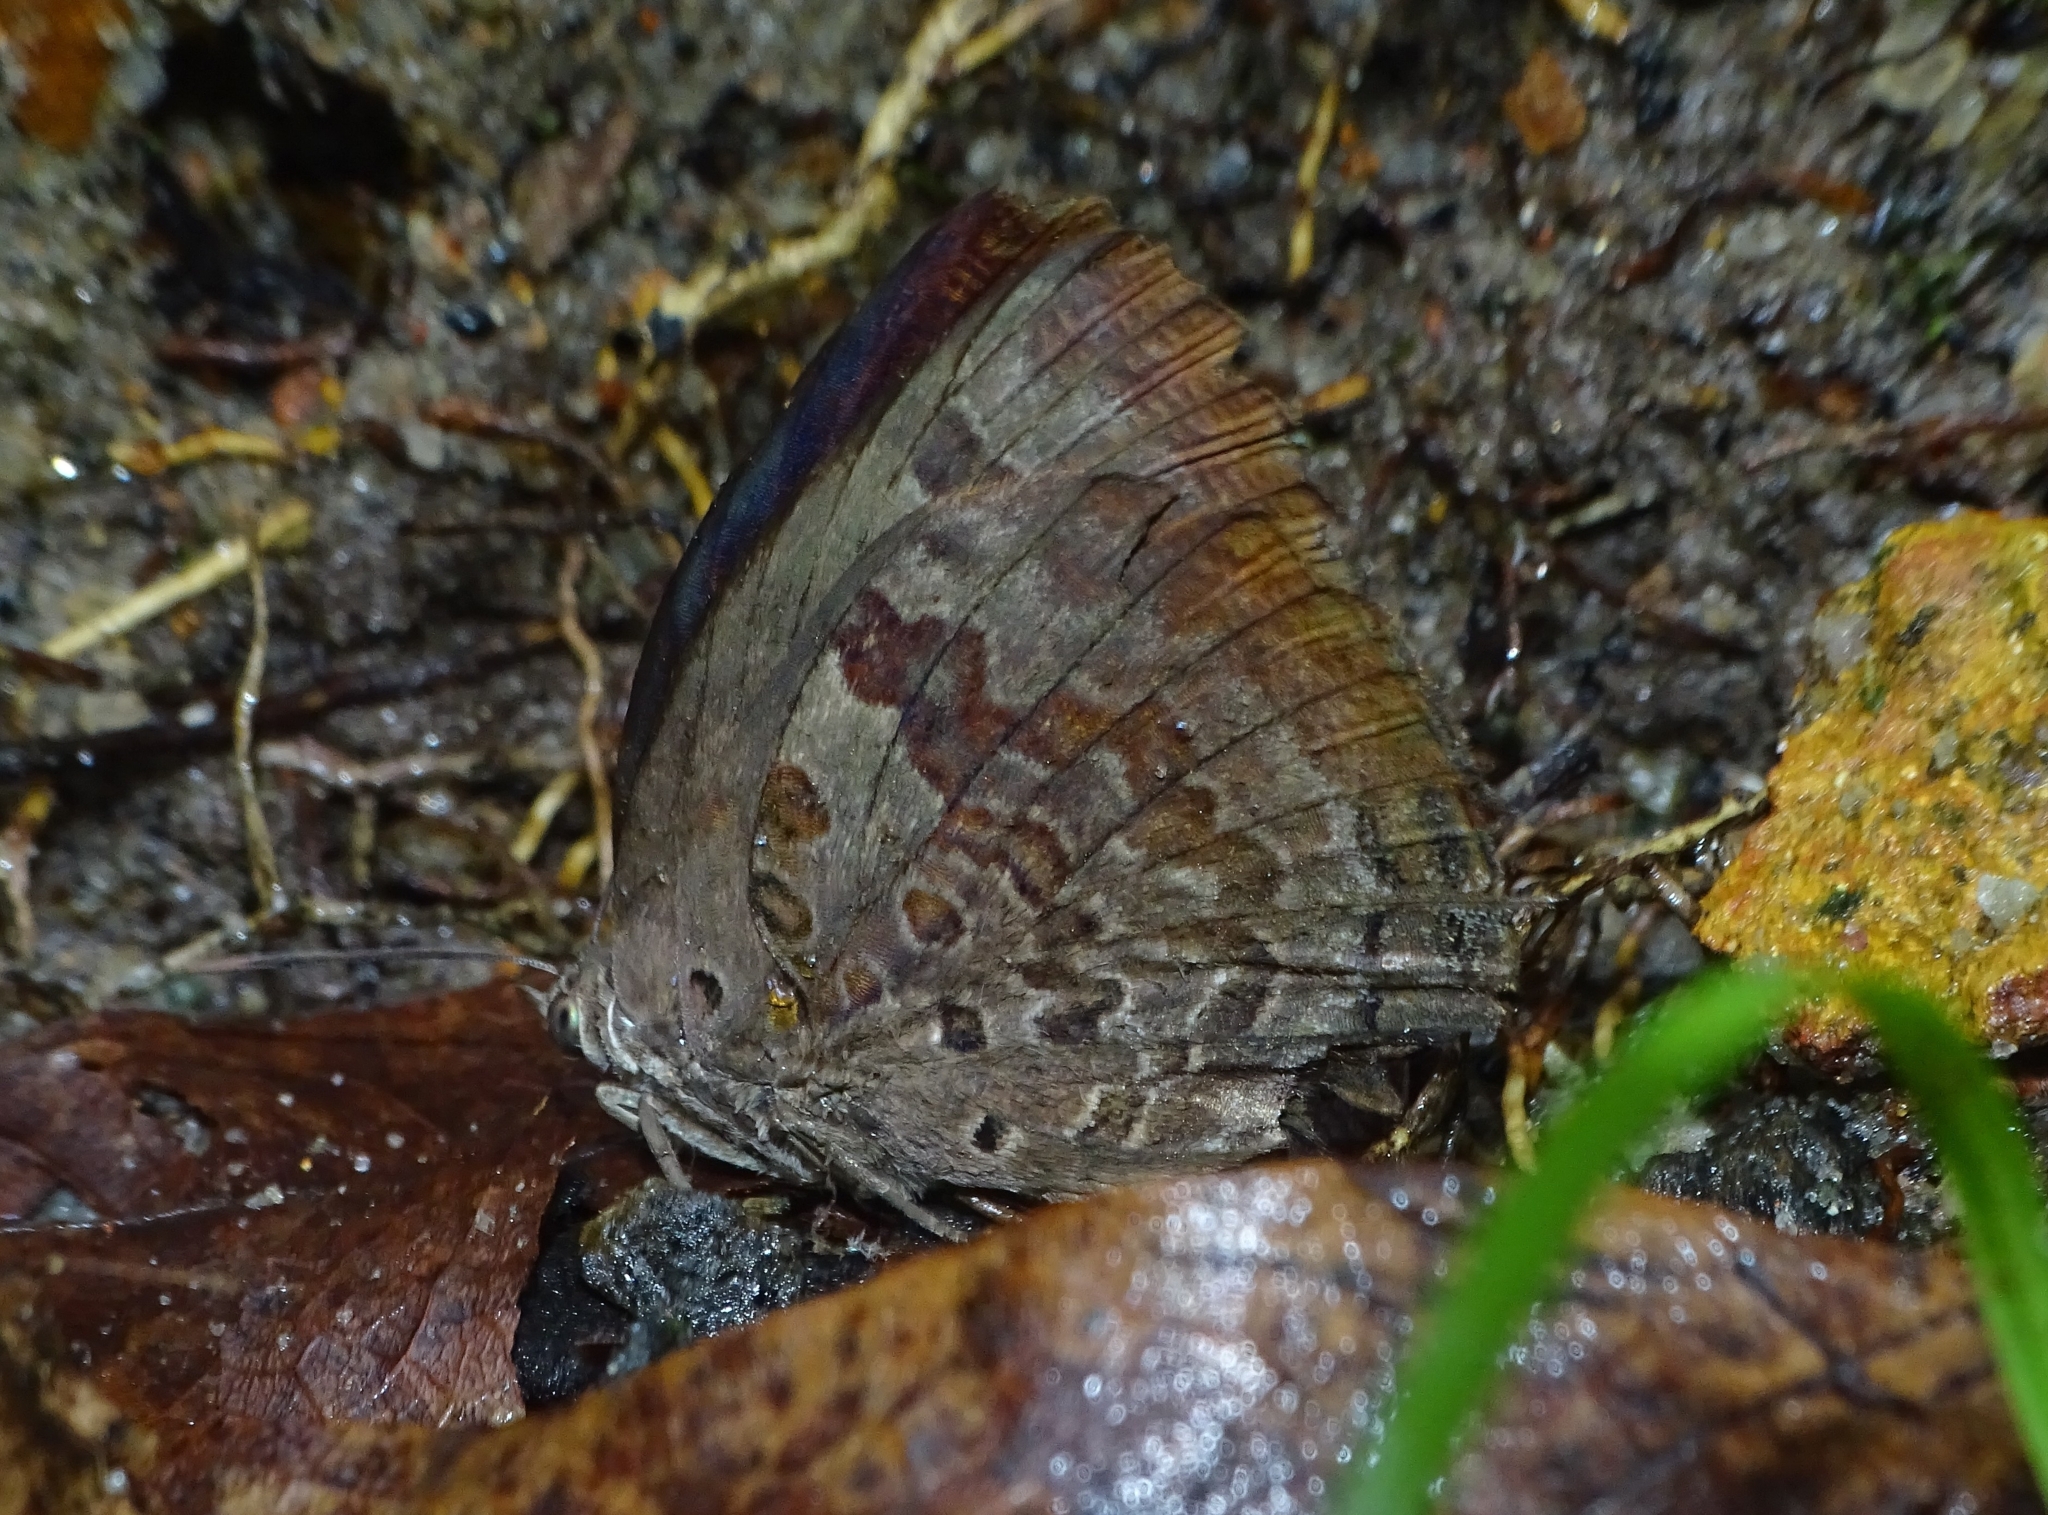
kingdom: Animalia
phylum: Arthropoda
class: Insecta
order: Lepidoptera
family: Lycaenidae
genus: Arhopala
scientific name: Arhopala amantes
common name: Large oakblue
